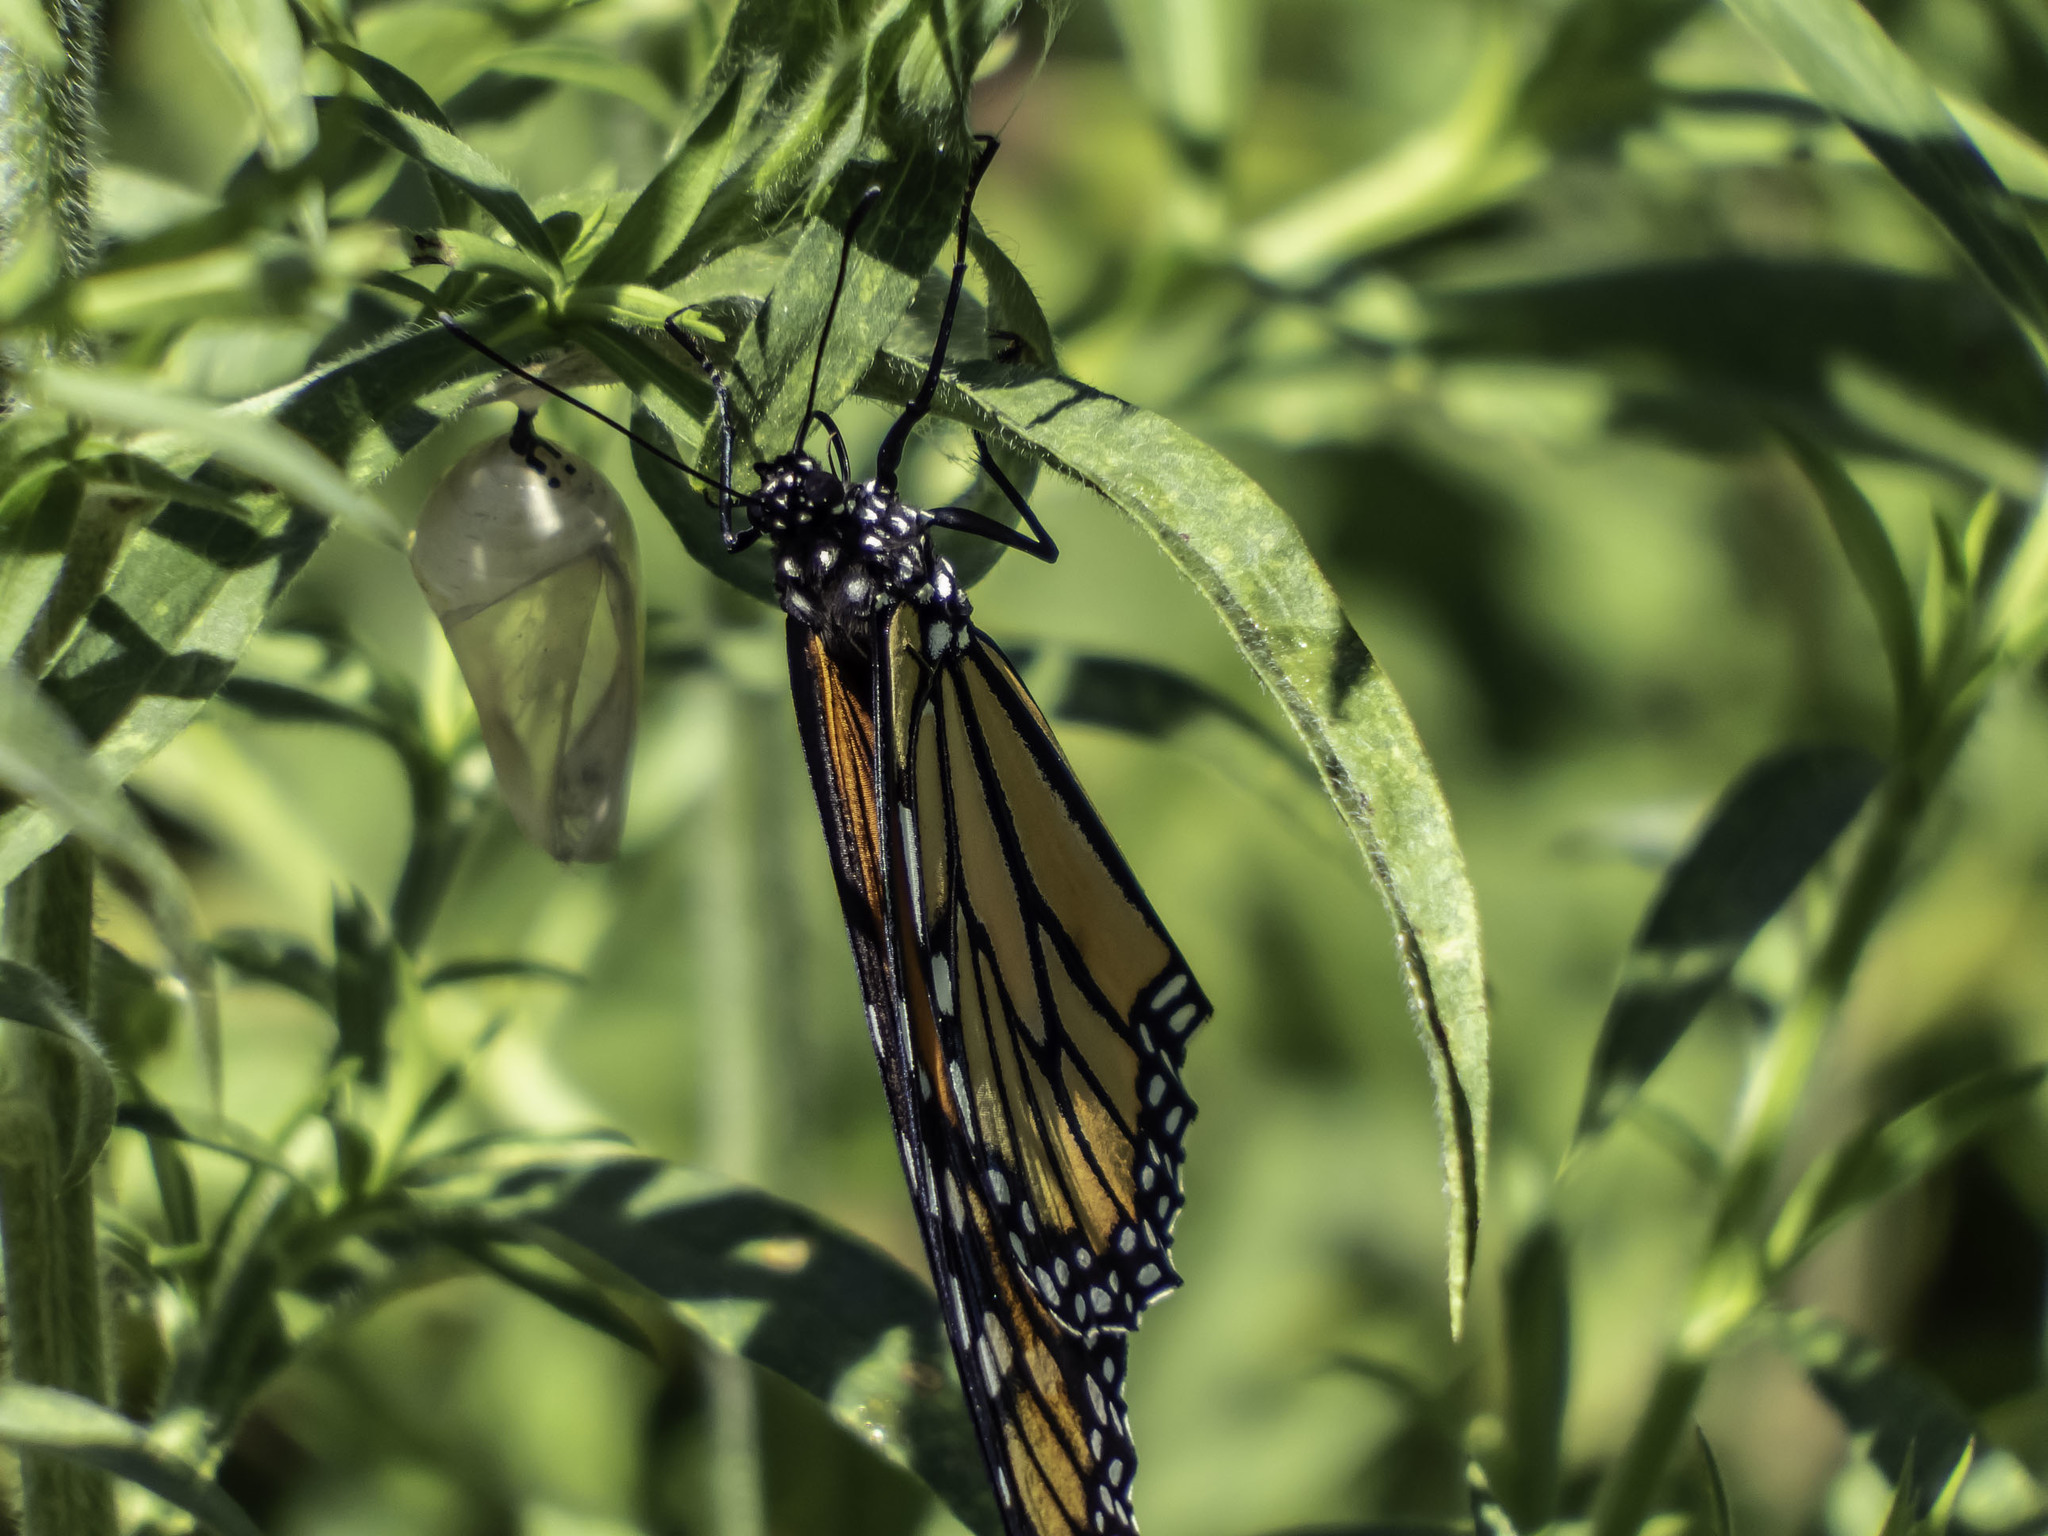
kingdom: Animalia
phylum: Arthropoda
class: Insecta
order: Lepidoptera
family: Nymphalidae
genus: Danaus
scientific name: Danaus plexippus
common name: Monarch
